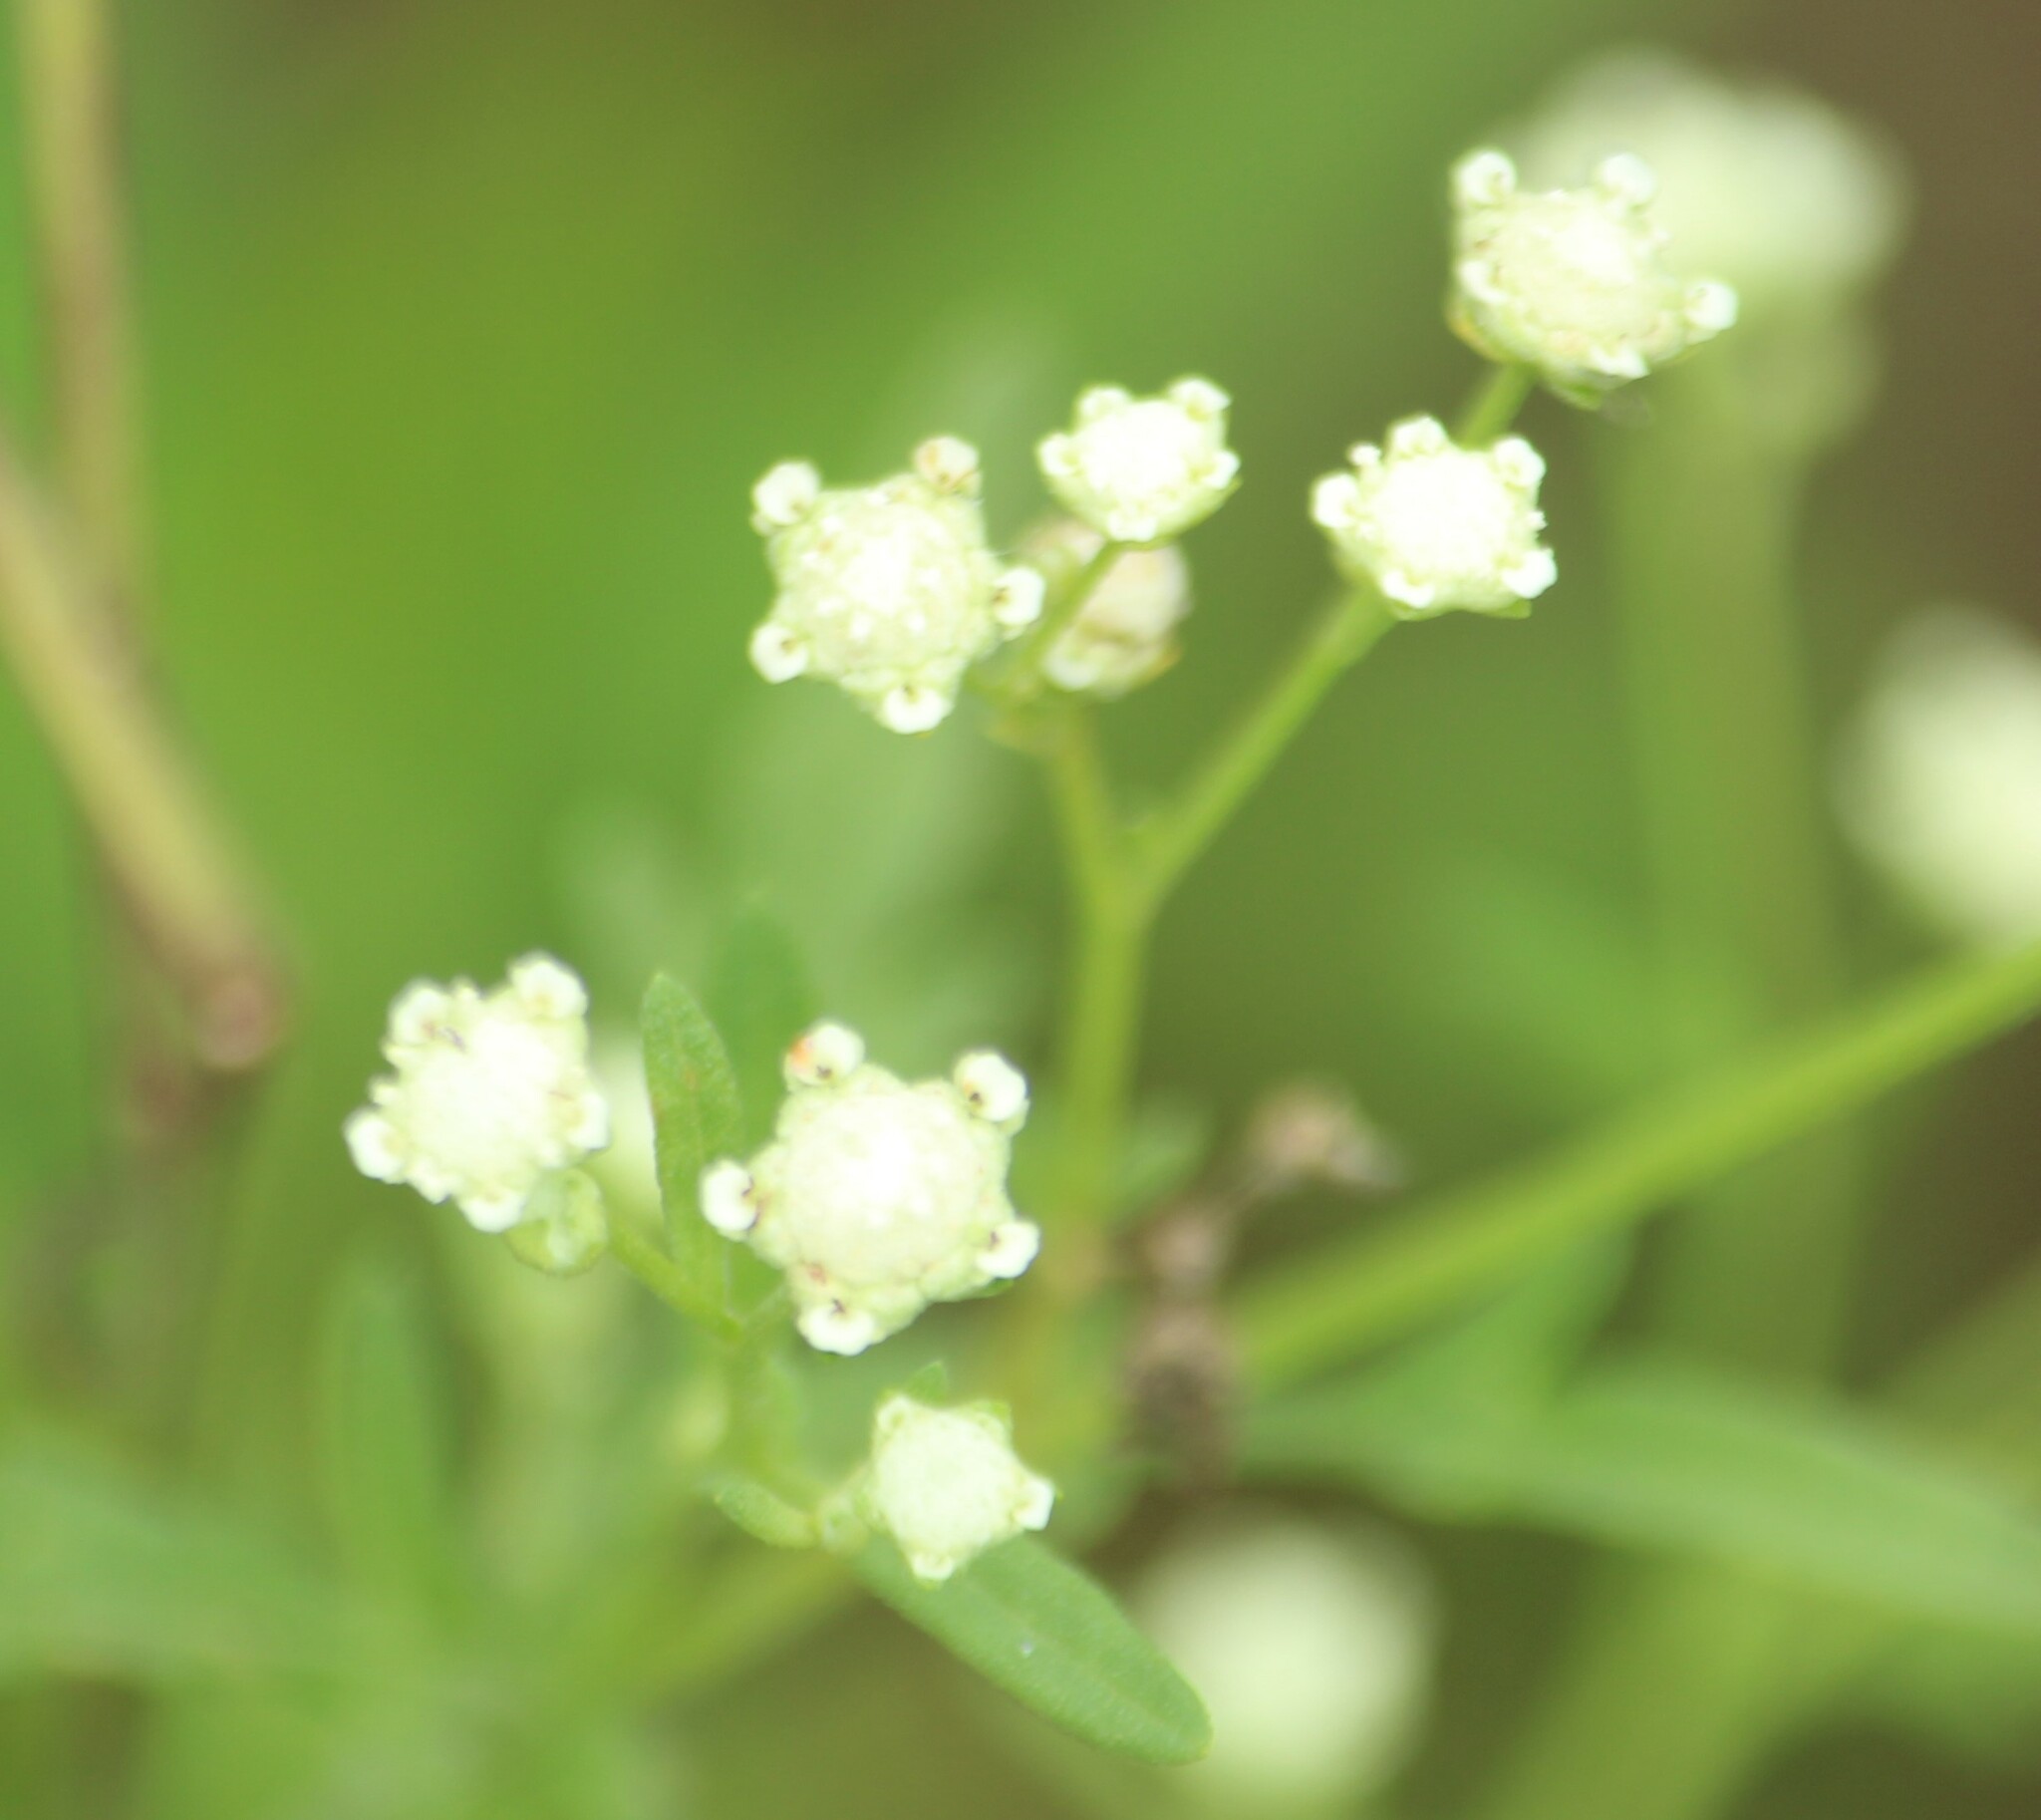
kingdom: Plantae
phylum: Tracheophyta
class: Magnoliopsida
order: Asterales
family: Asteraceae
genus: Parthenium
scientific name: Parthenium hysterophorus
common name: Santa maria feverfew
